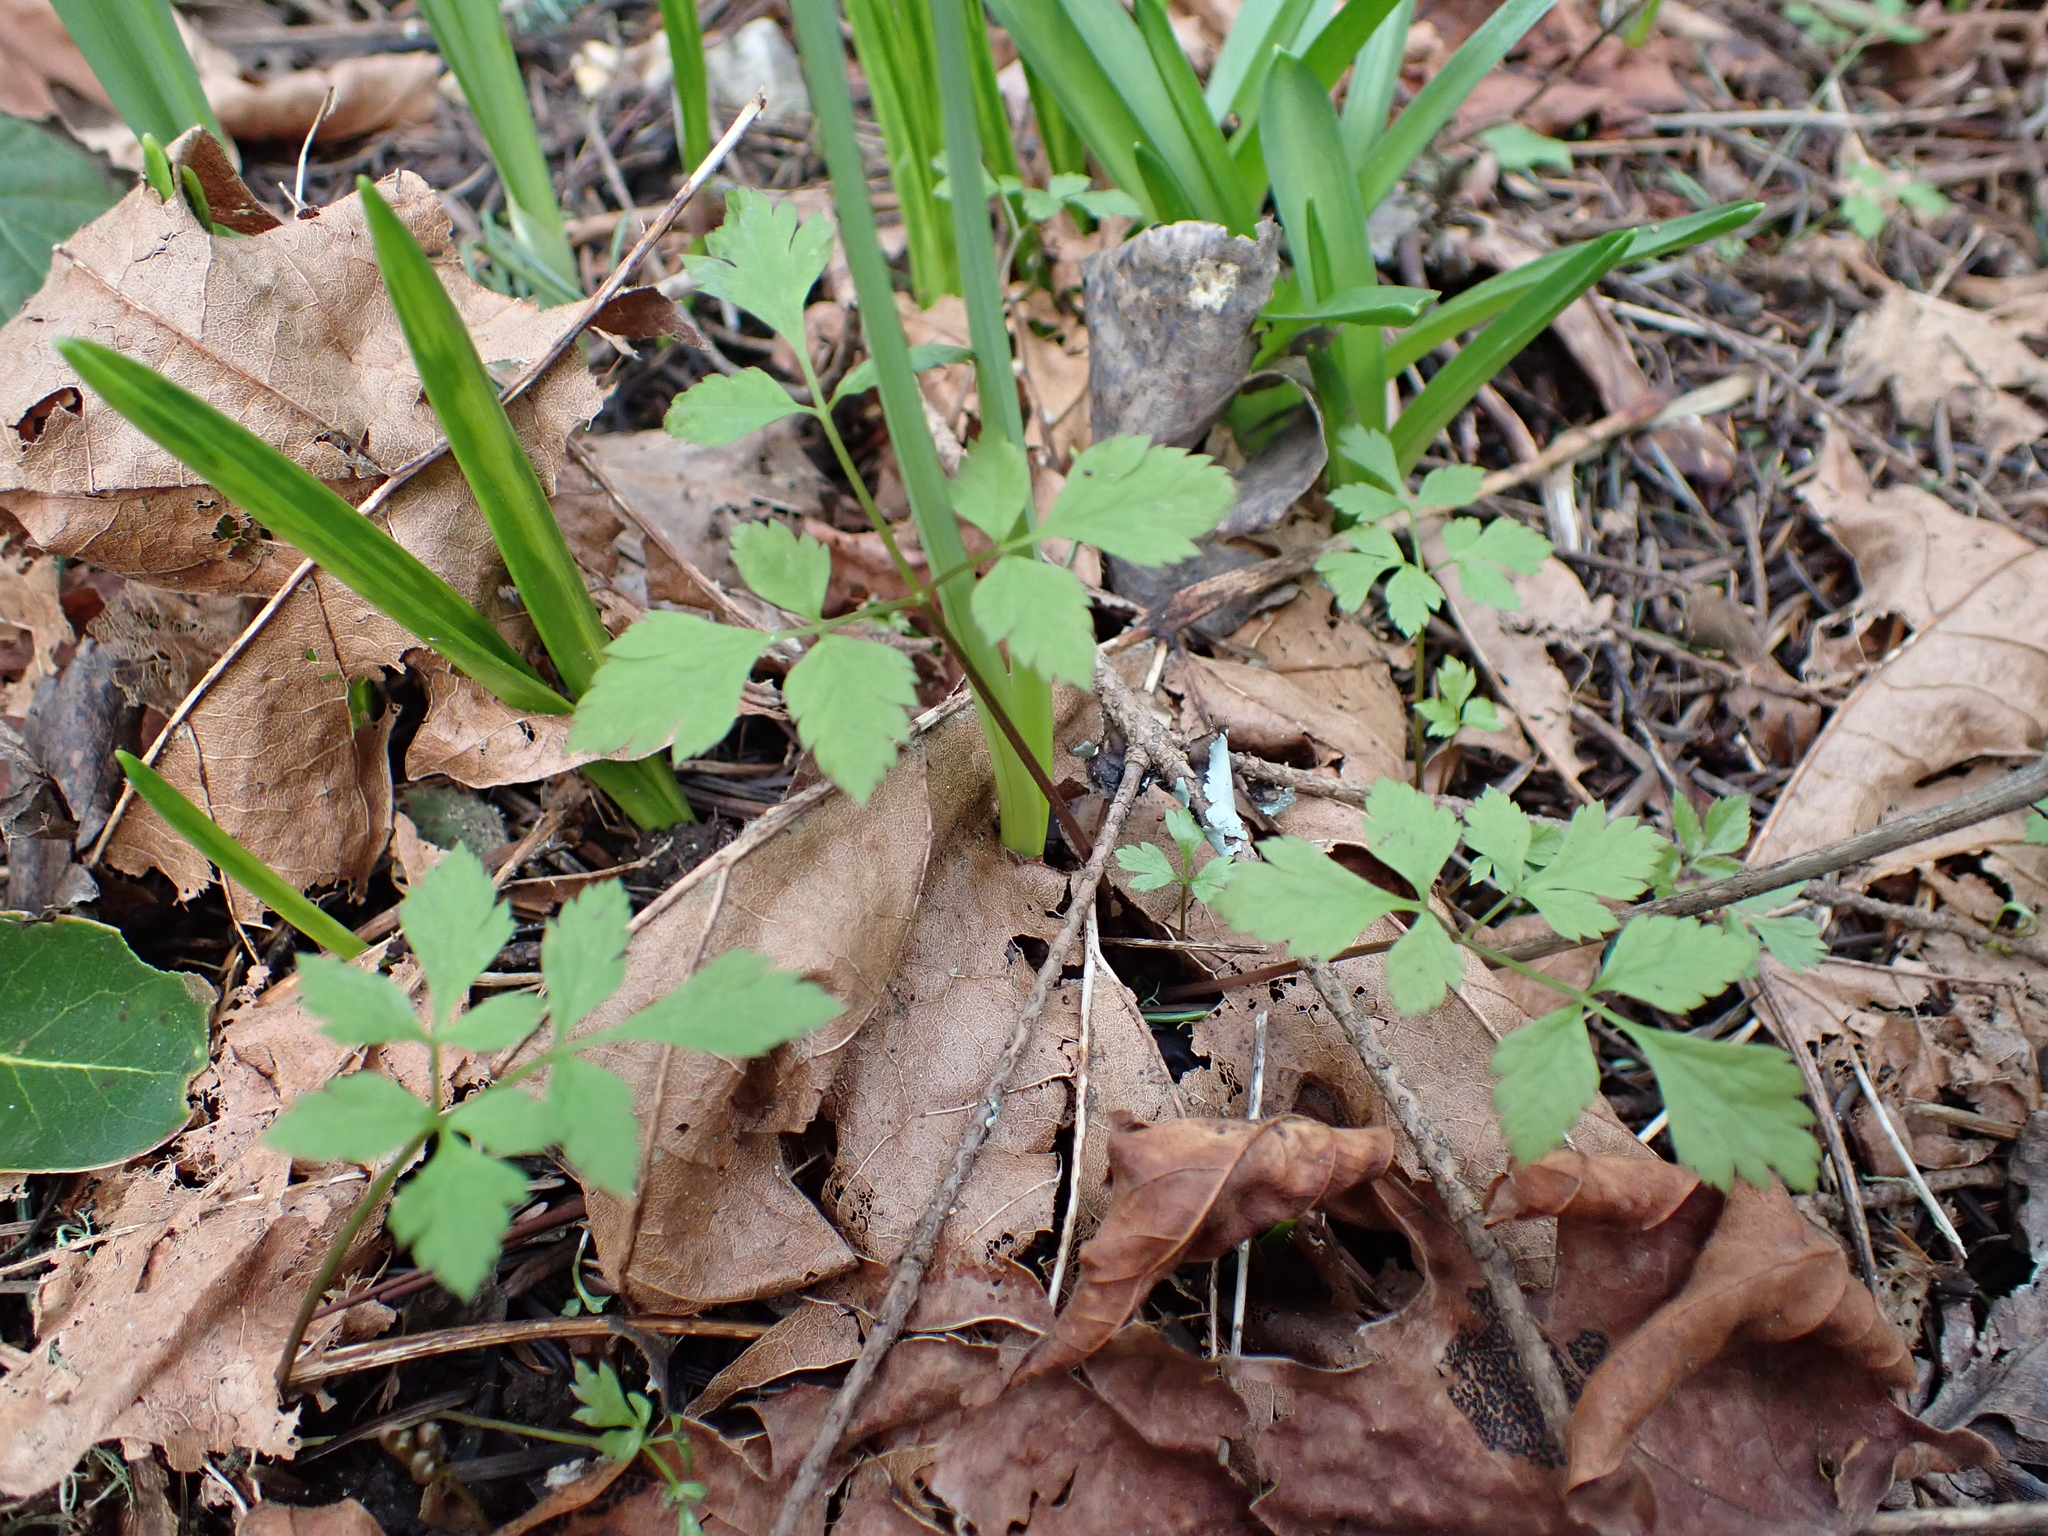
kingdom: Plantae
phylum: Tracheophyta
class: Magnoliopsida
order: Apiales
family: Apiaceae
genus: Osmorhiza
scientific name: Osmorhiza berteroi
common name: Mountain sweet cicely
